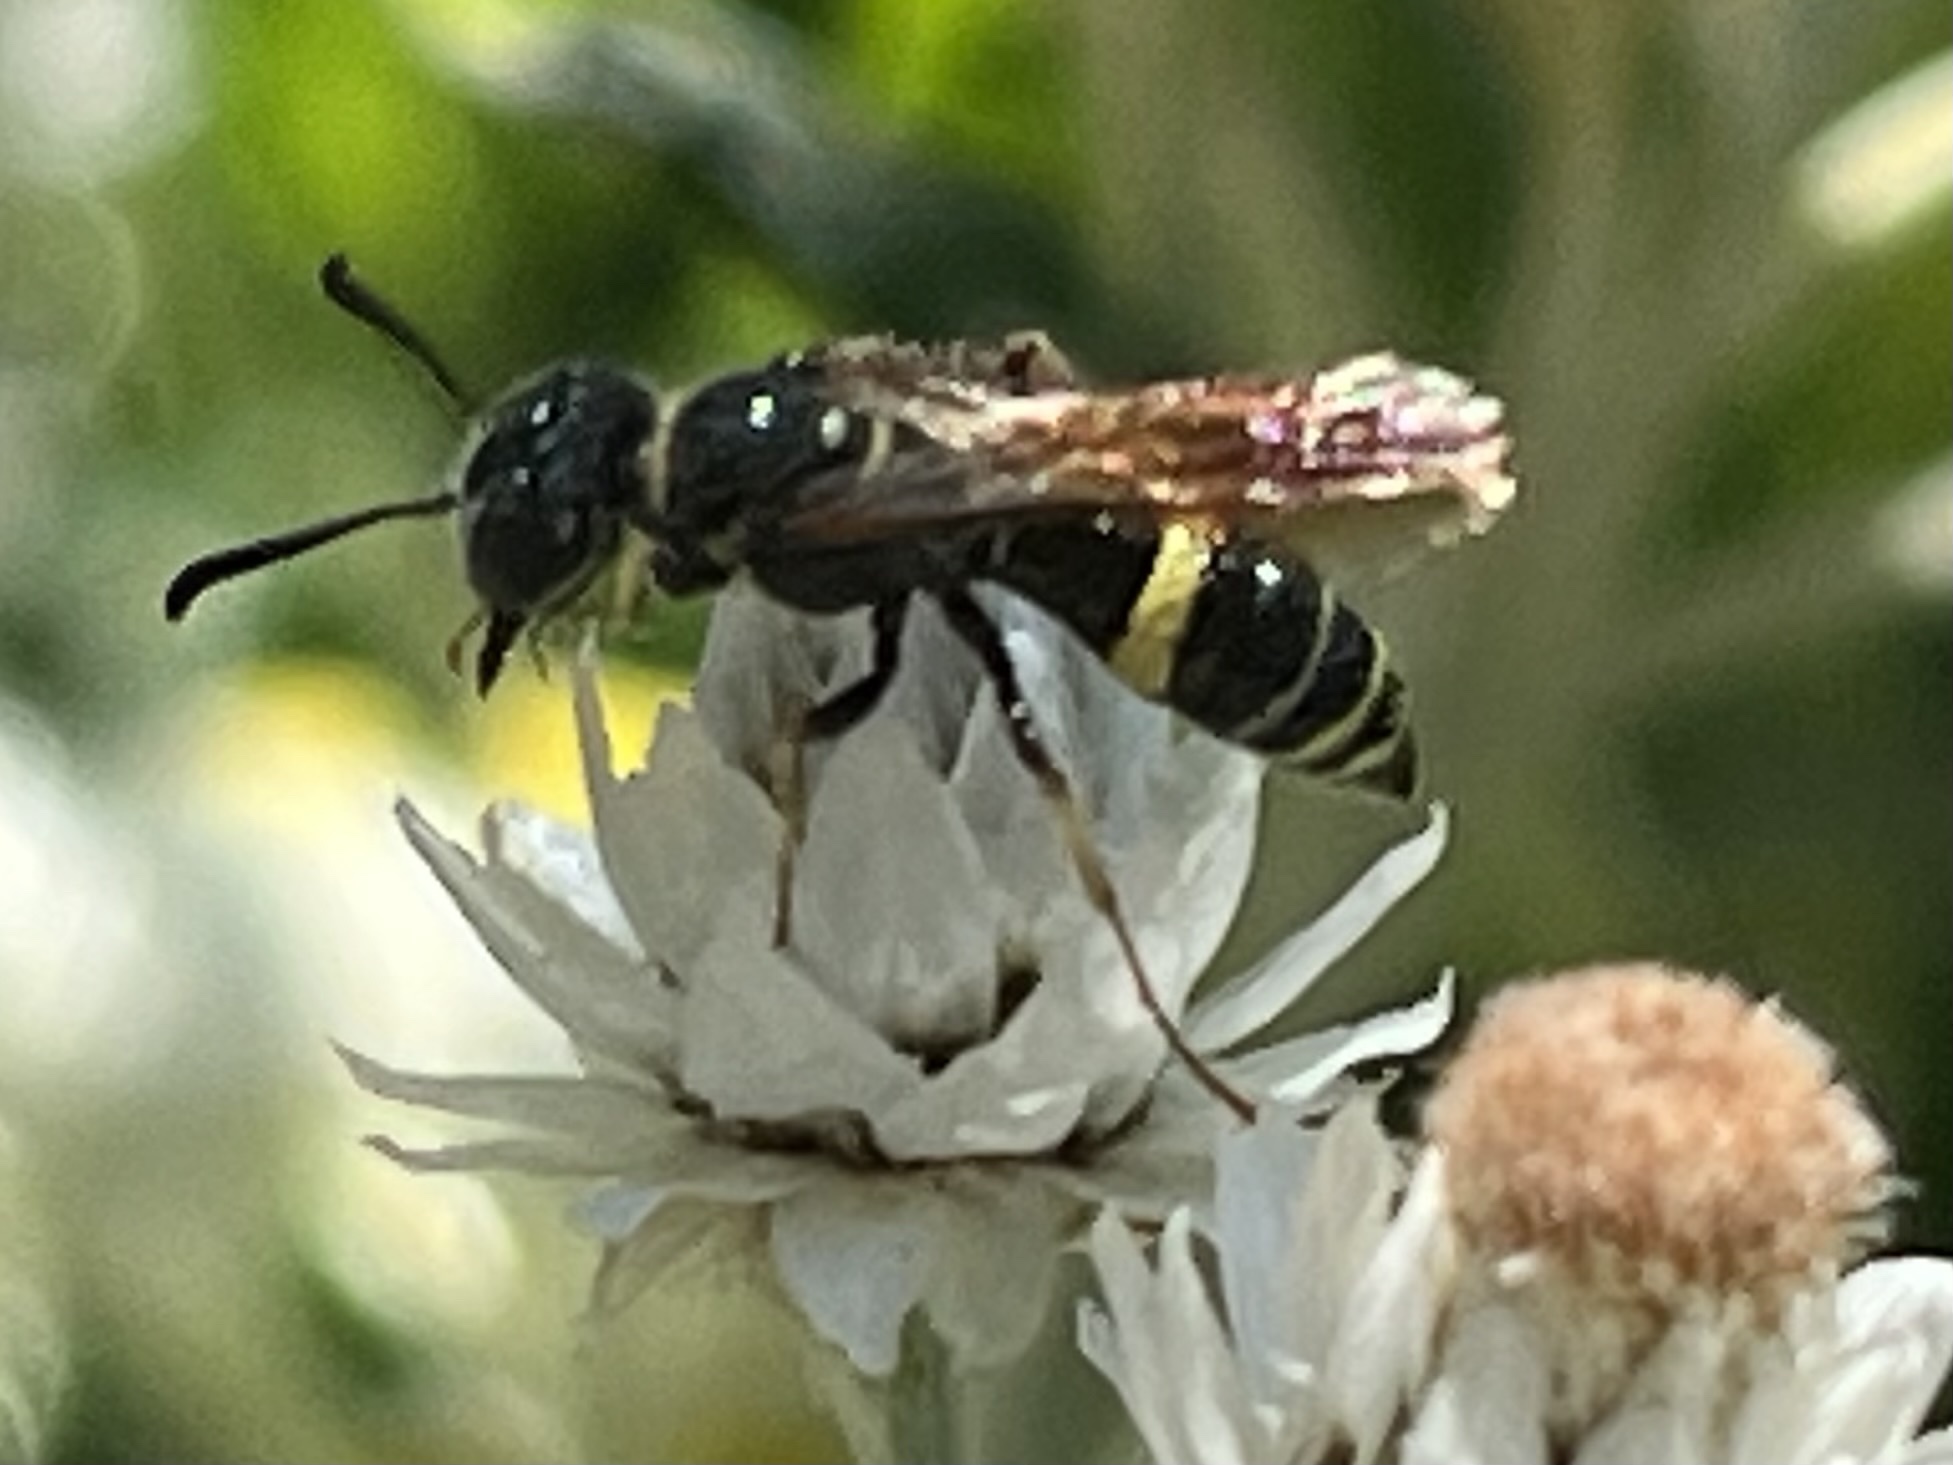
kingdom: Animalia
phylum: Arthropoda
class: Insecta
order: Hymenoptera
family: Crabronidae
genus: Philanthus
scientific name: Philanthus gibbosus
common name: Humped beewolf
